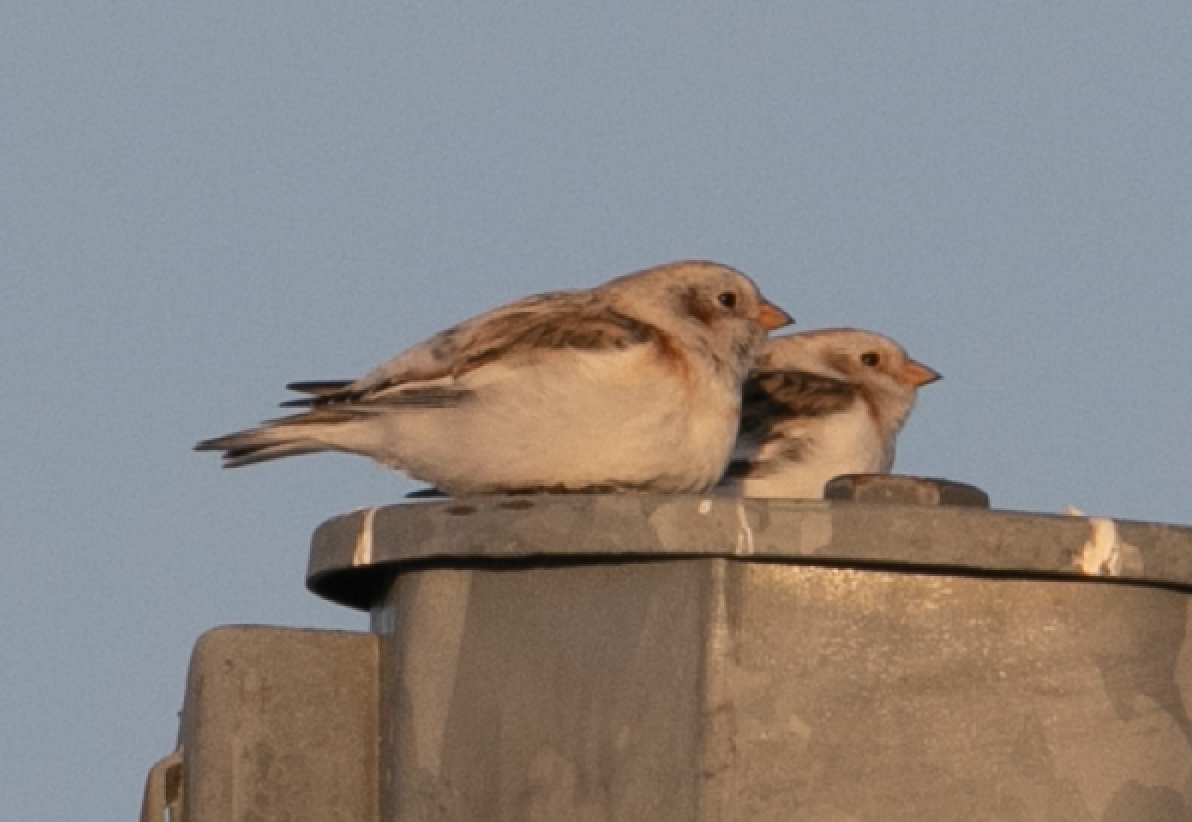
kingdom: Animalia
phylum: Chordata
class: Aves
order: Passeriformes
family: Calcariidae
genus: Plectrophenax
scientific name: Plectrophenax nivalis
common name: Snow bunting
